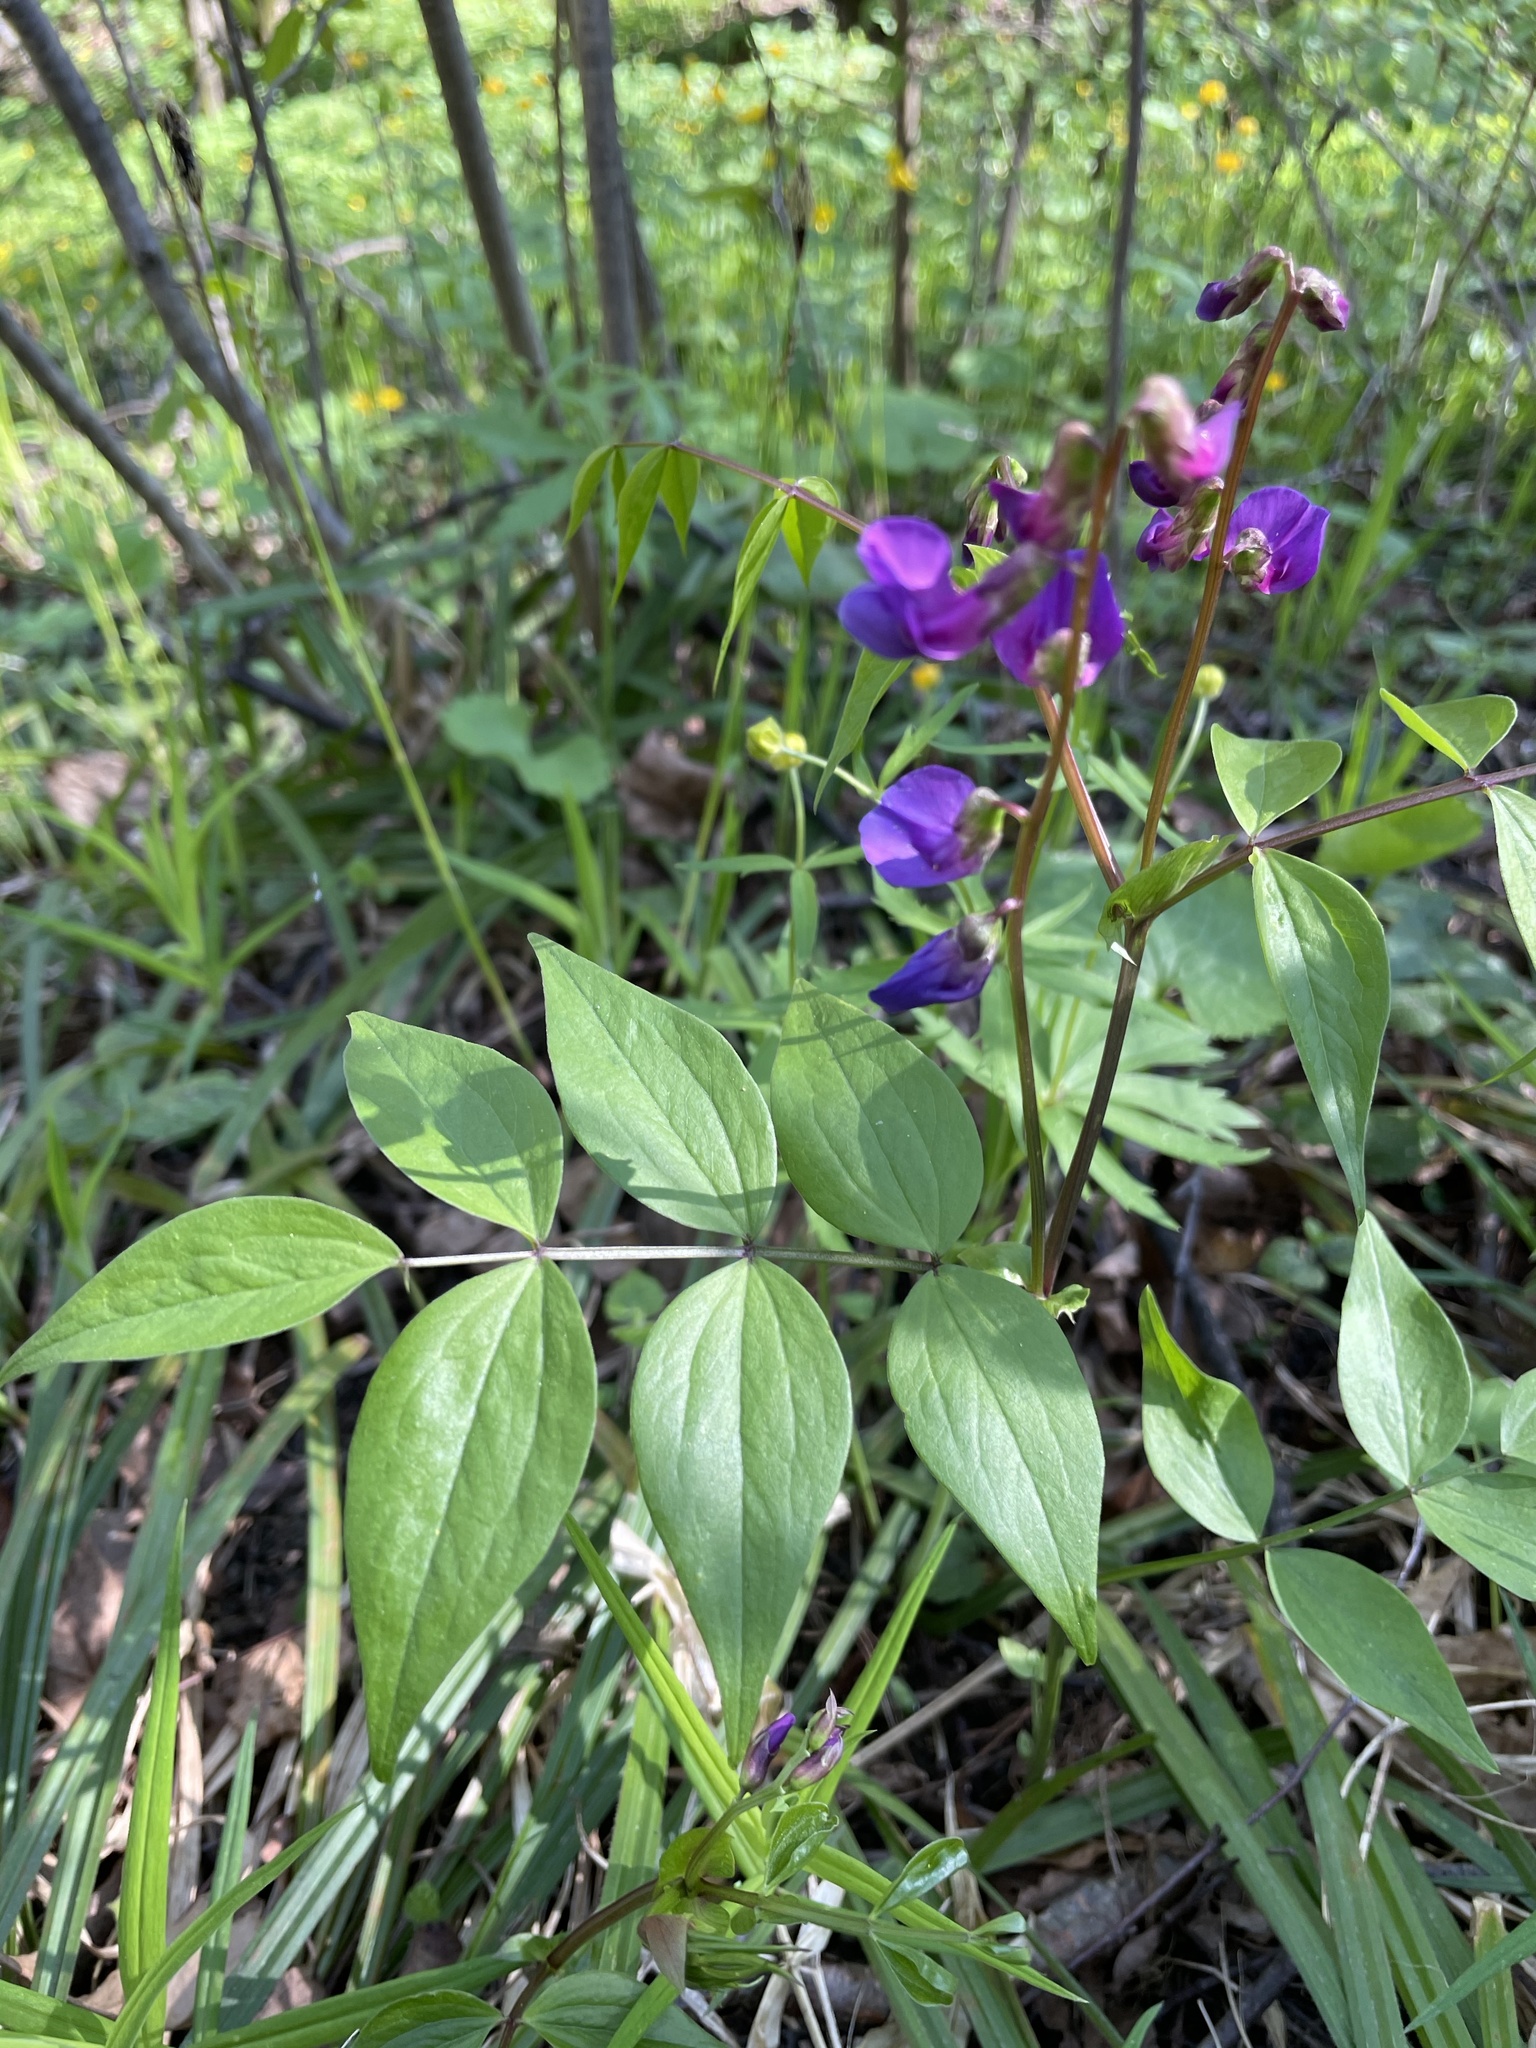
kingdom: Plantae
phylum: Tracheophyta
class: Magnoliopsida
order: Fabales
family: Fabaceae
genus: Lathyrus
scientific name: Lathyrus vernus
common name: Spring pea
